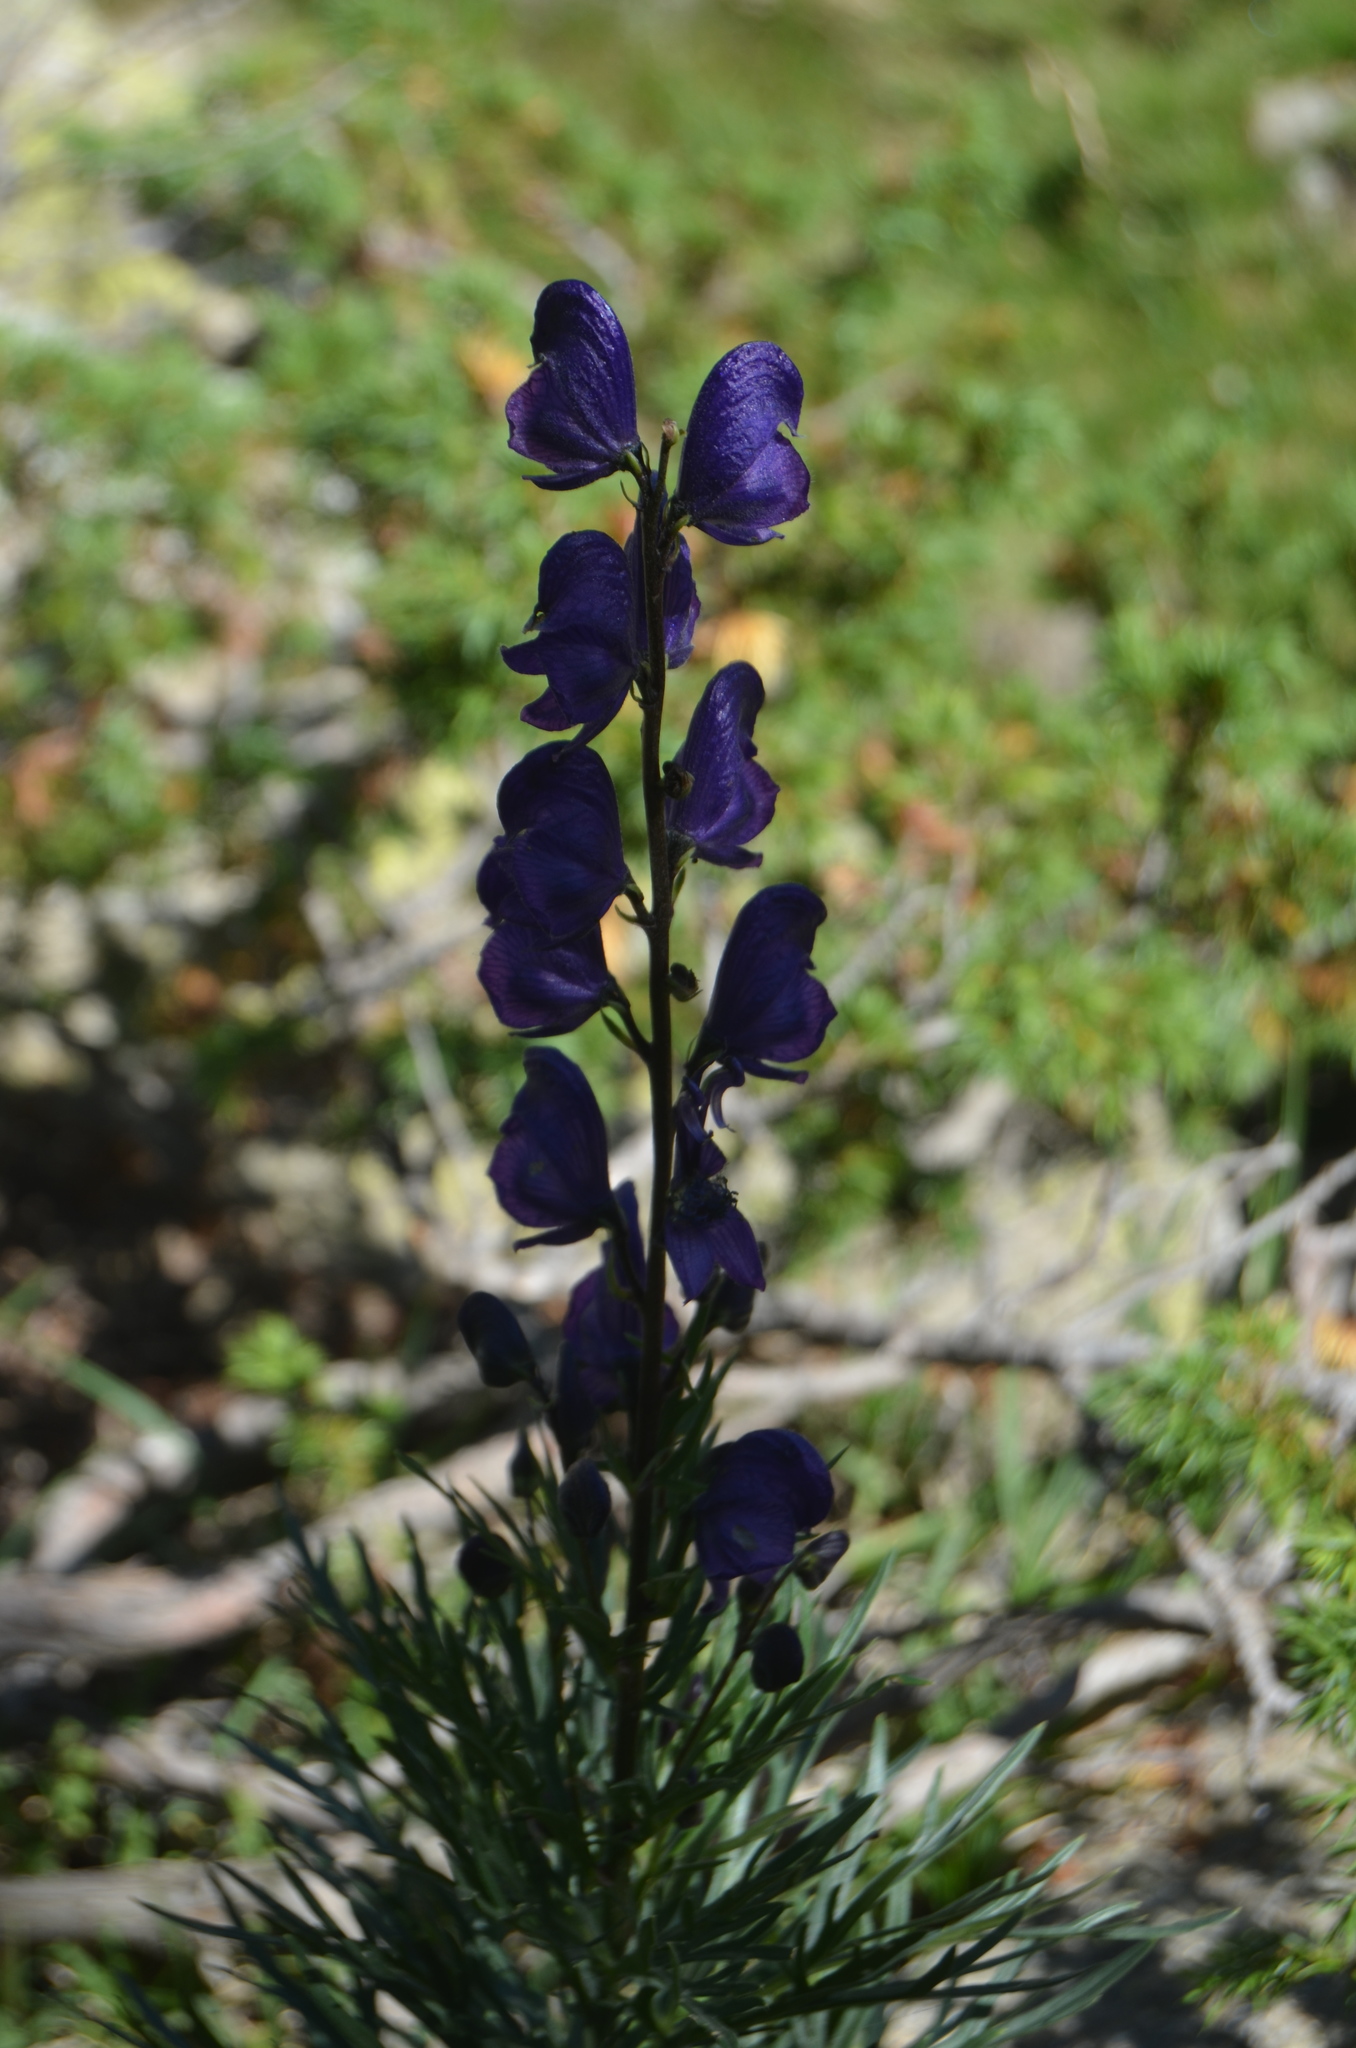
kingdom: Plantae
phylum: Tracheophyta
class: Magnoliopsida
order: Ranunculales
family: Ranunculaceae
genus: Aconitum
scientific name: Aconitum napellus
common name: Garden monkshood
